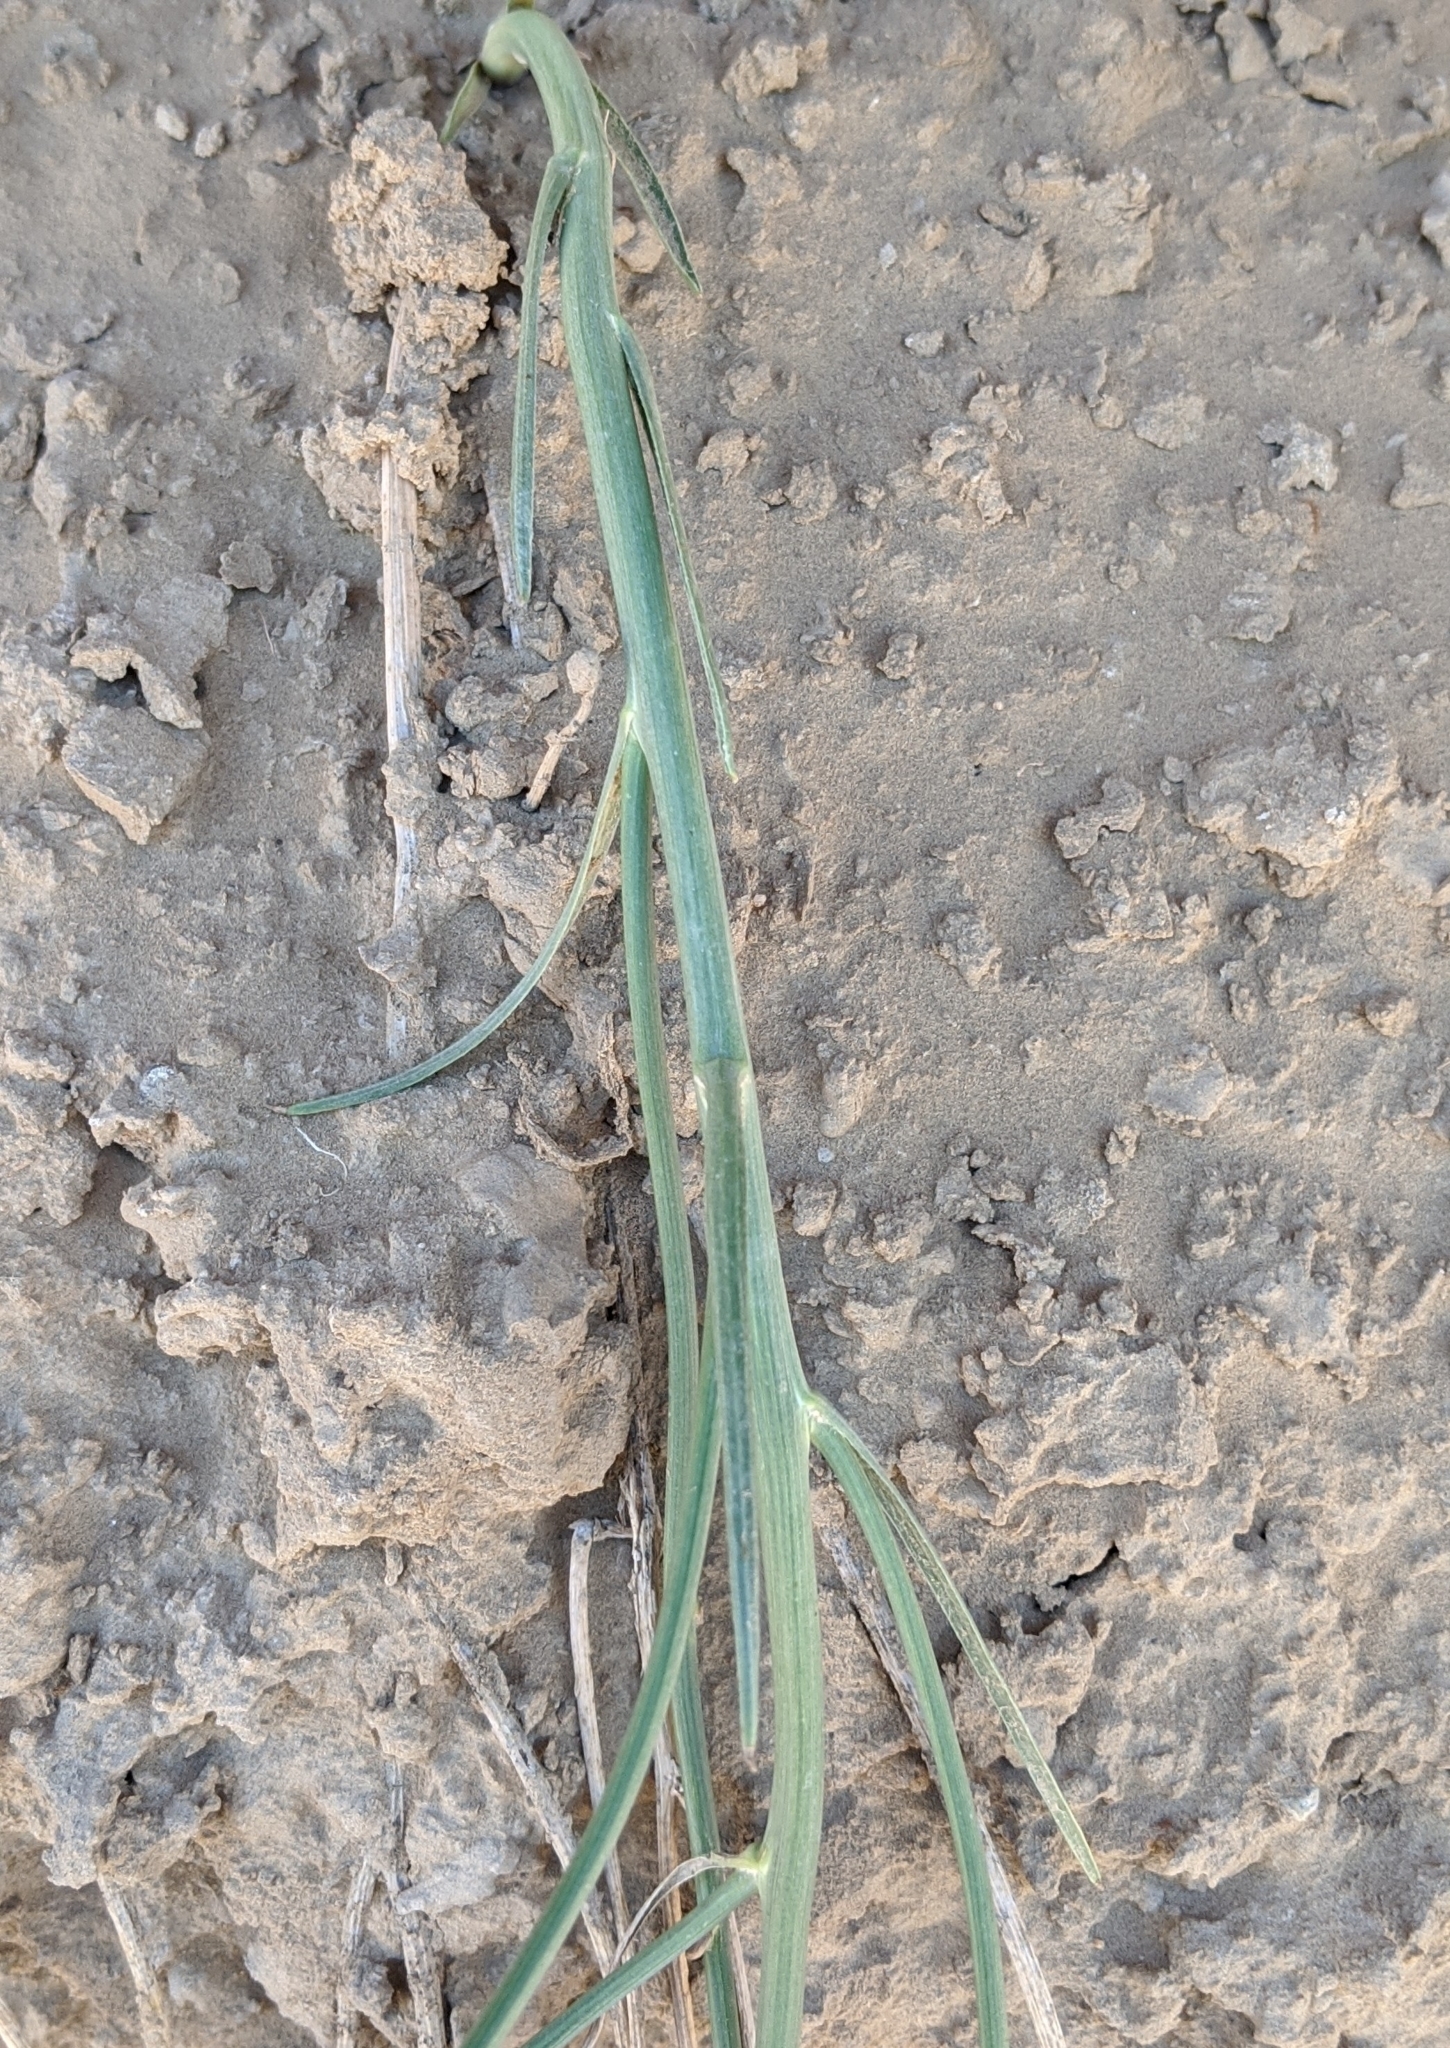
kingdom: Plantae
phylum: Tracheophyta
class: Magnoliopsida
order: Asterales
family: Asteraceae
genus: Lygodesmia
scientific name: Lygodesmia juncea
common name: Common skeletonweed
